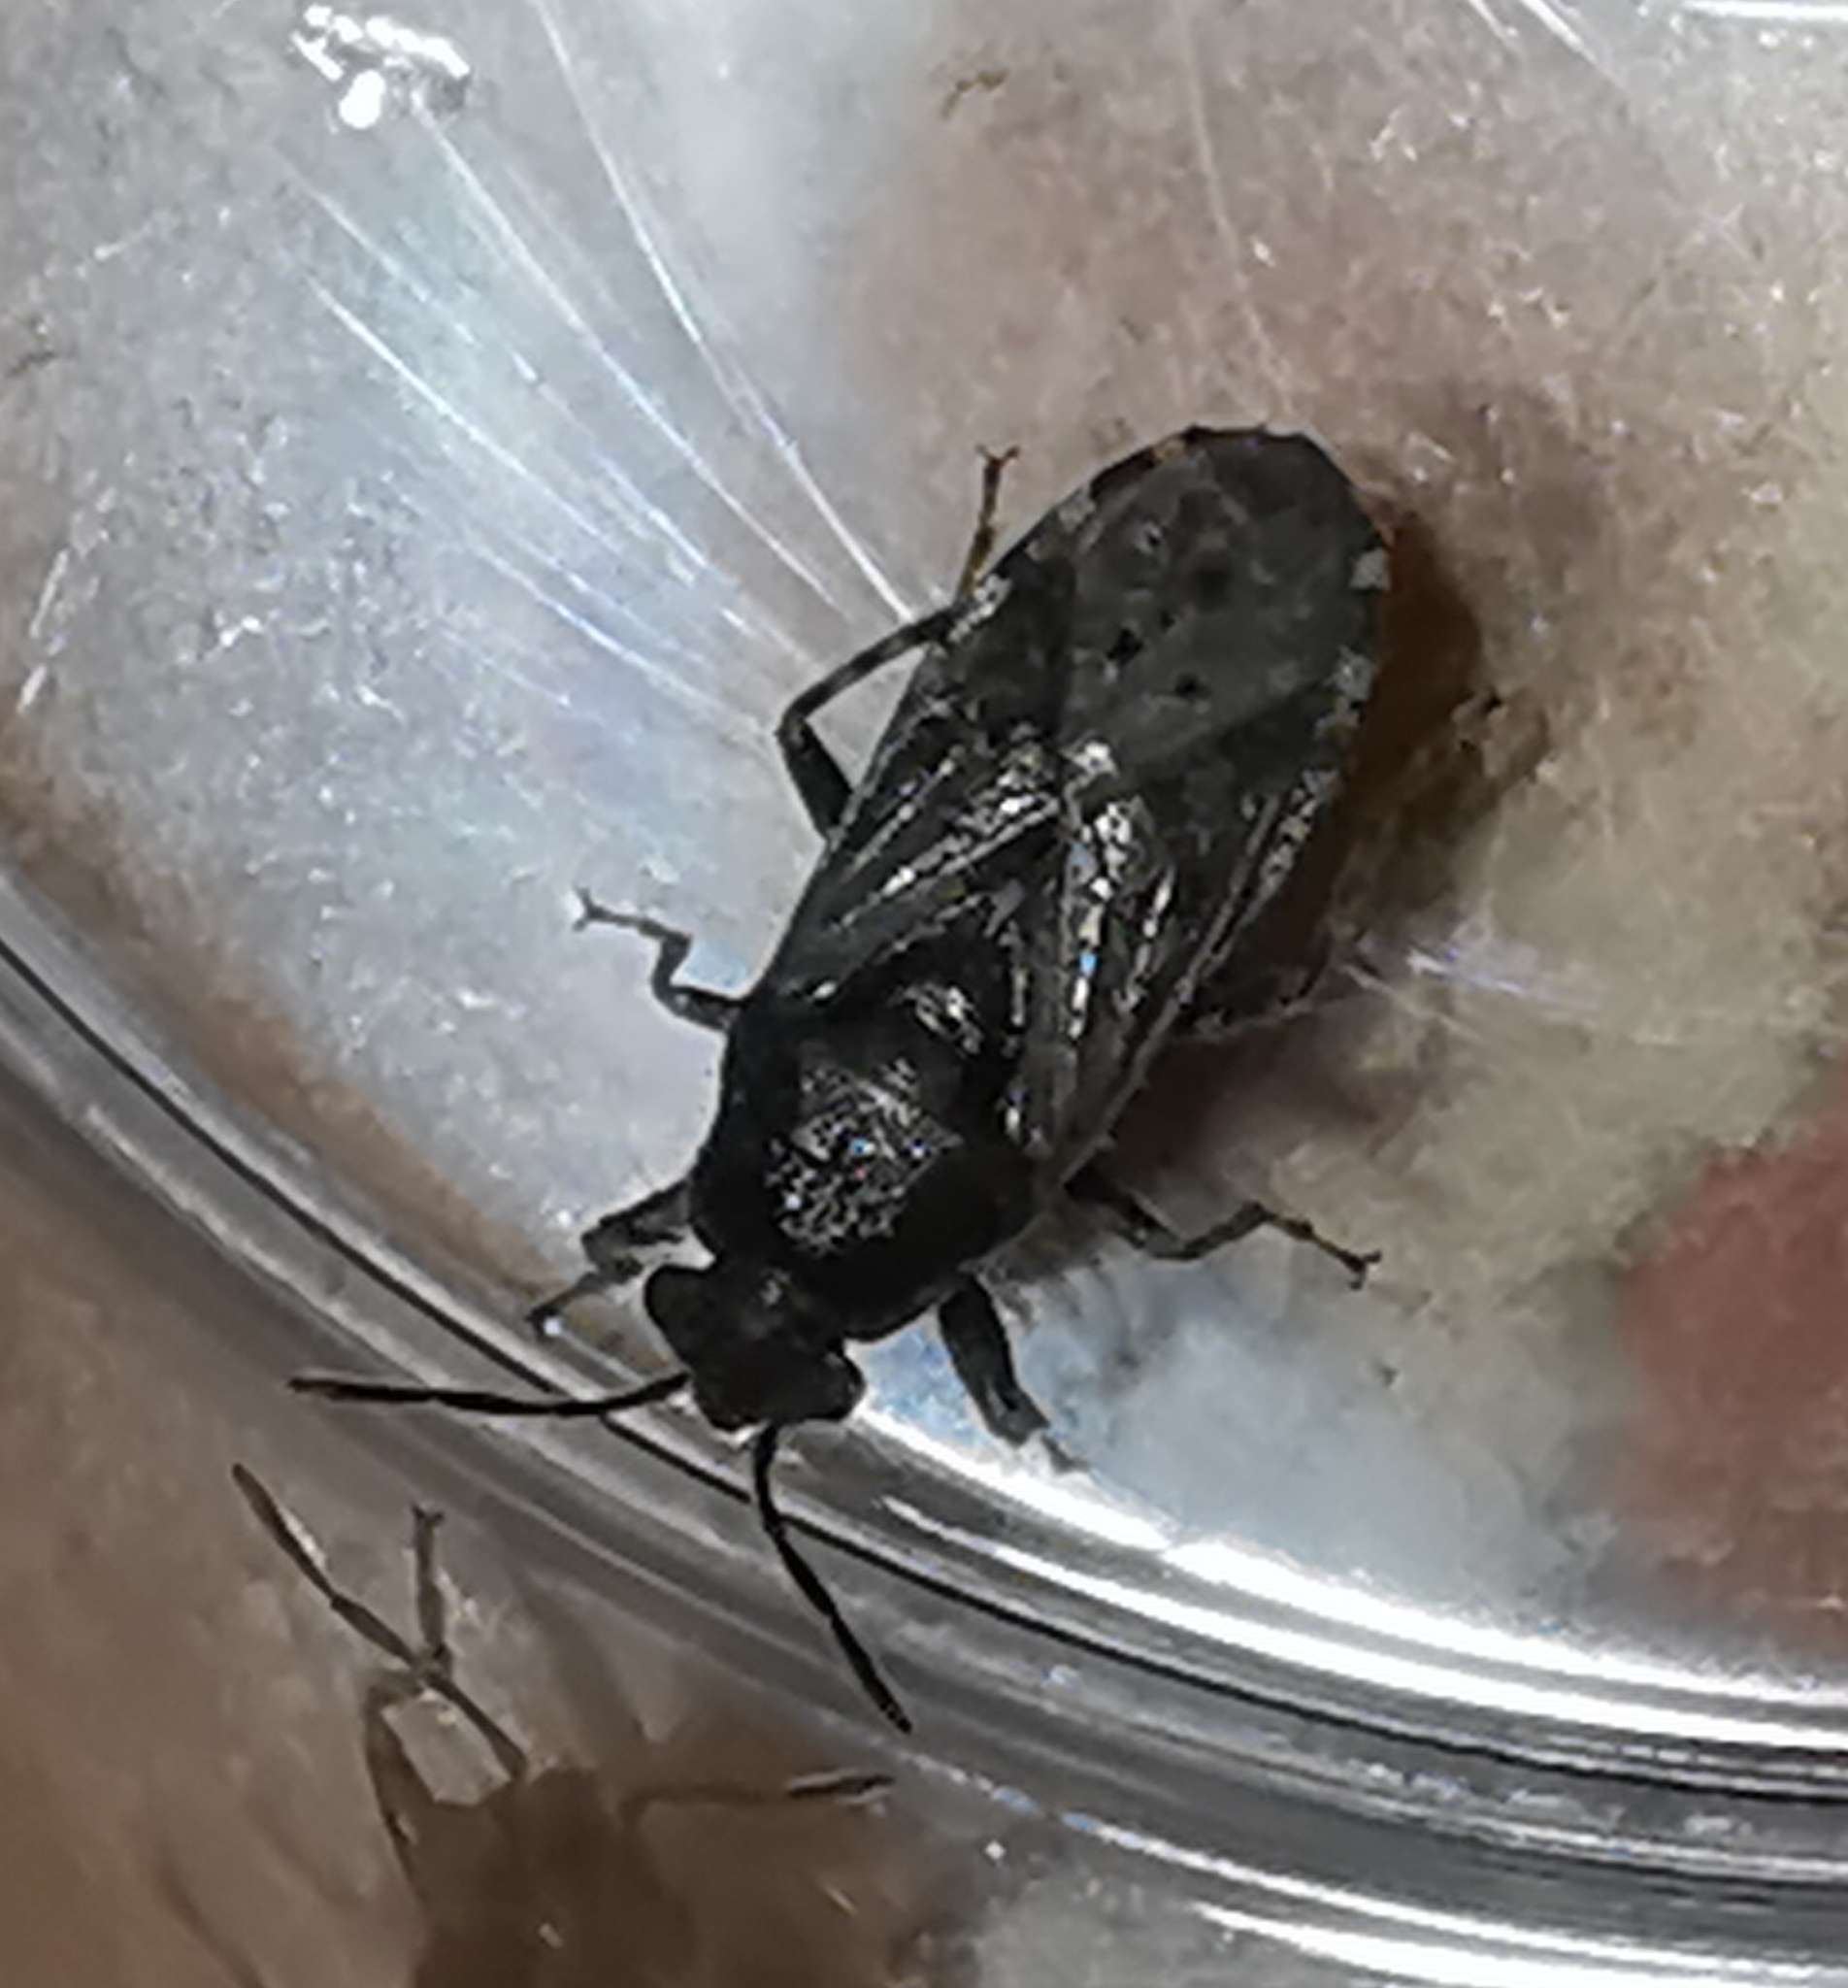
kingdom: Animalia
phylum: Arthropoda
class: Insecta
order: Hemiptera
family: Heterogastridae
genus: Heterogaster
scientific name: Heterogaster urticae
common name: Seed bug
